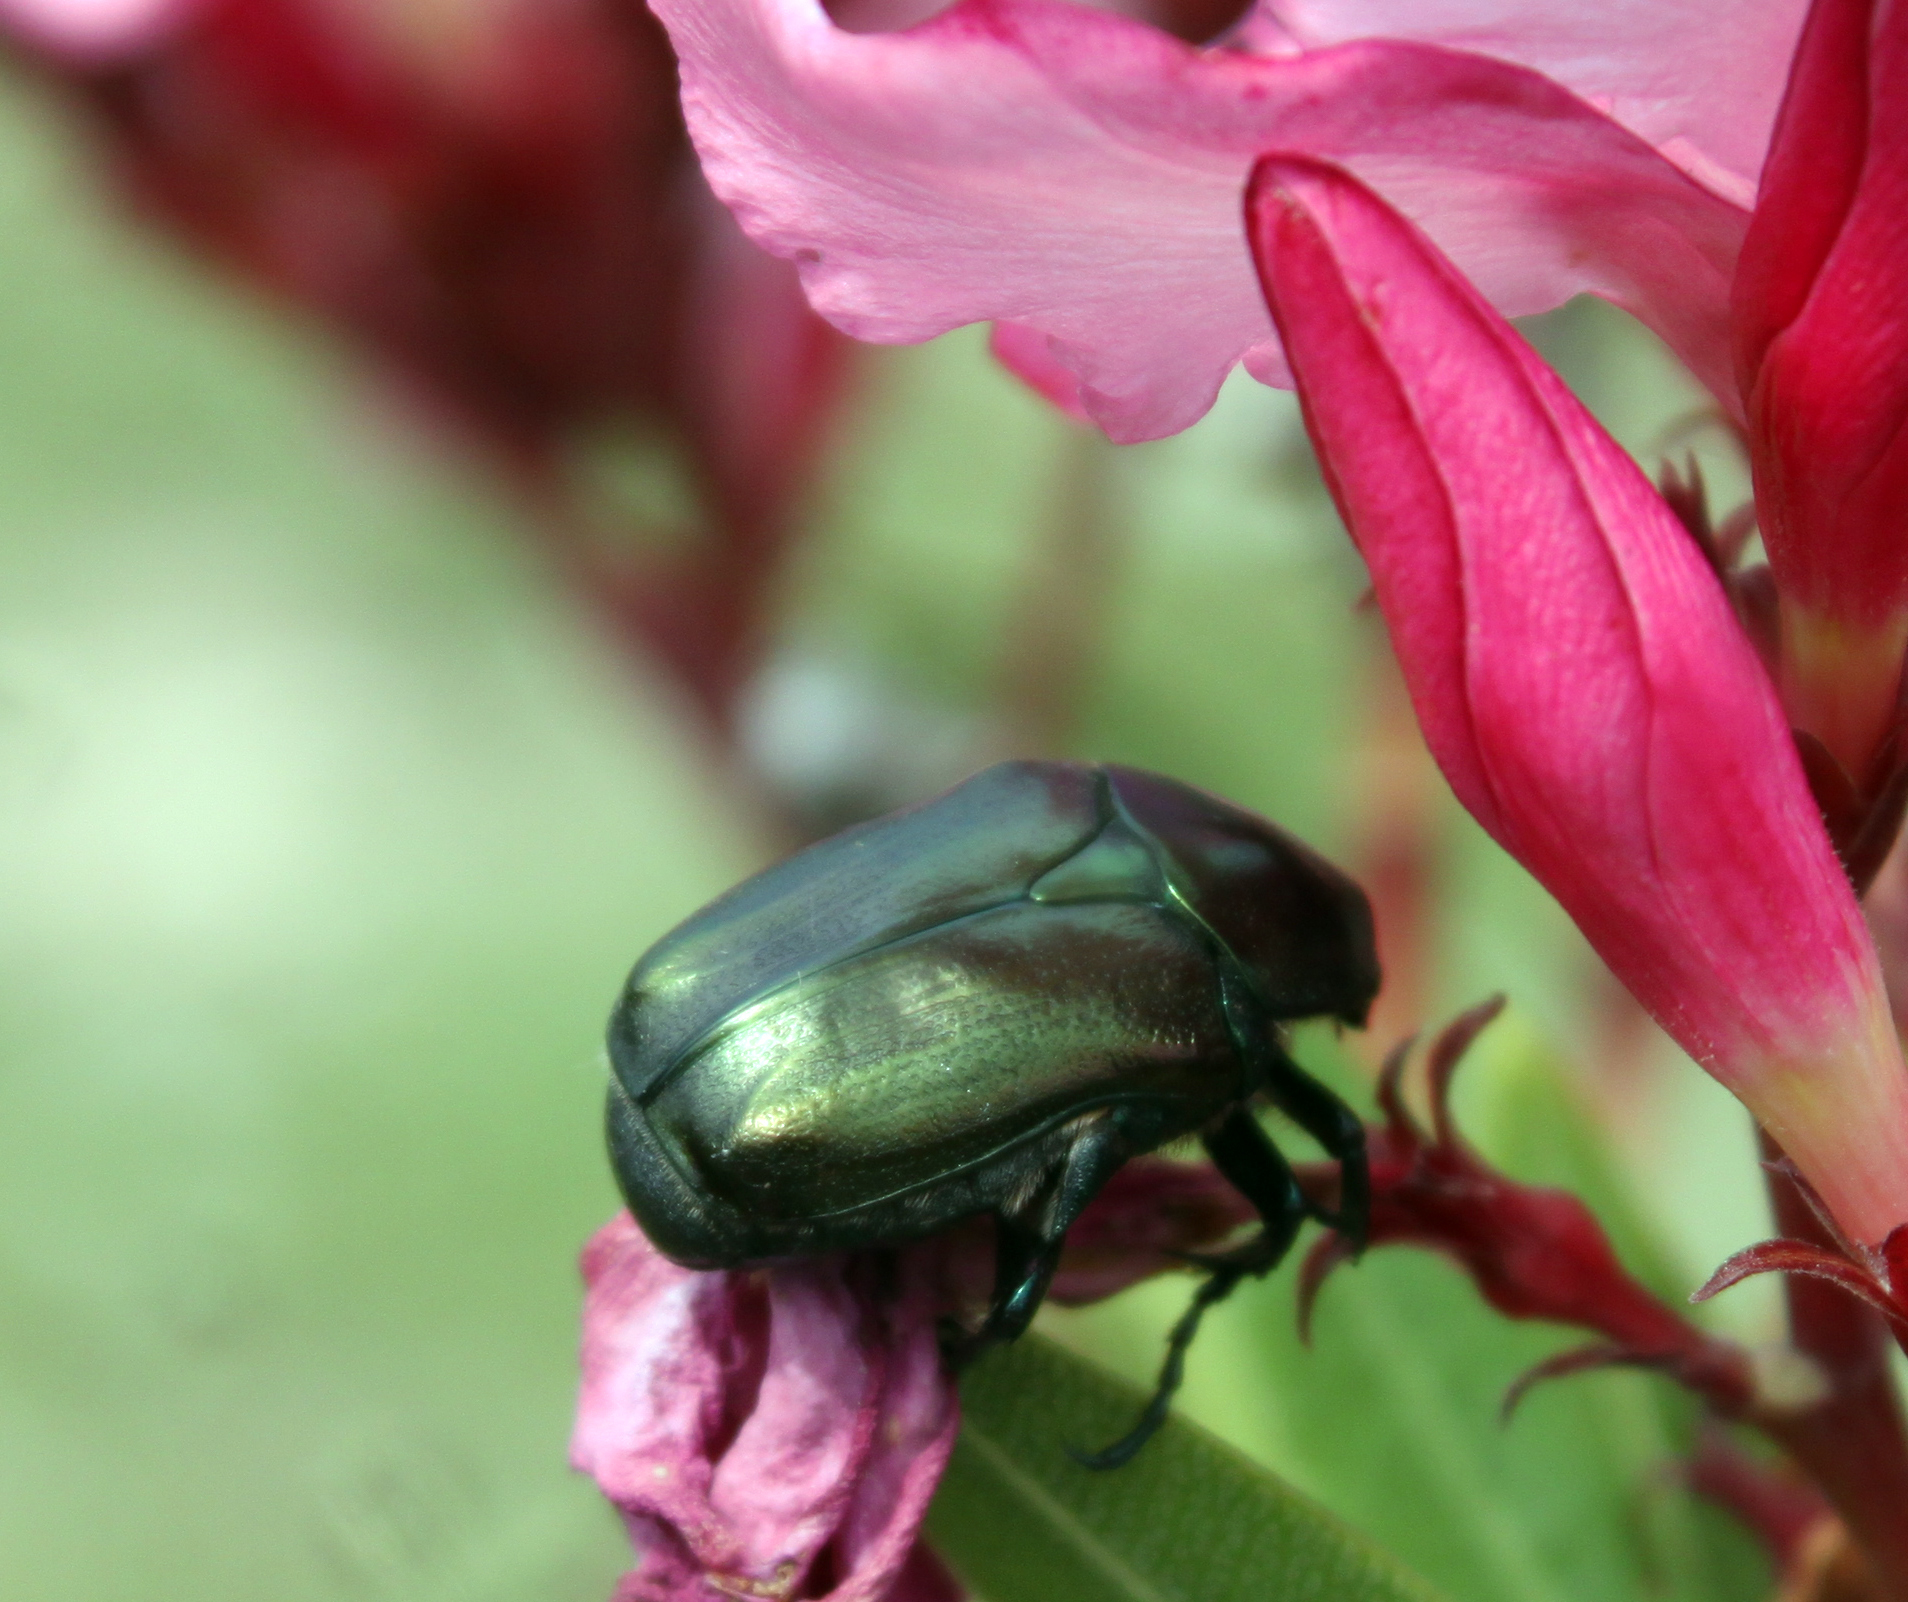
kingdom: Animalia
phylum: Arthropoda
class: Insecta
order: Coleoptera
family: Scarabaeidae
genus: Protaetia
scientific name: Protaetia angustata
